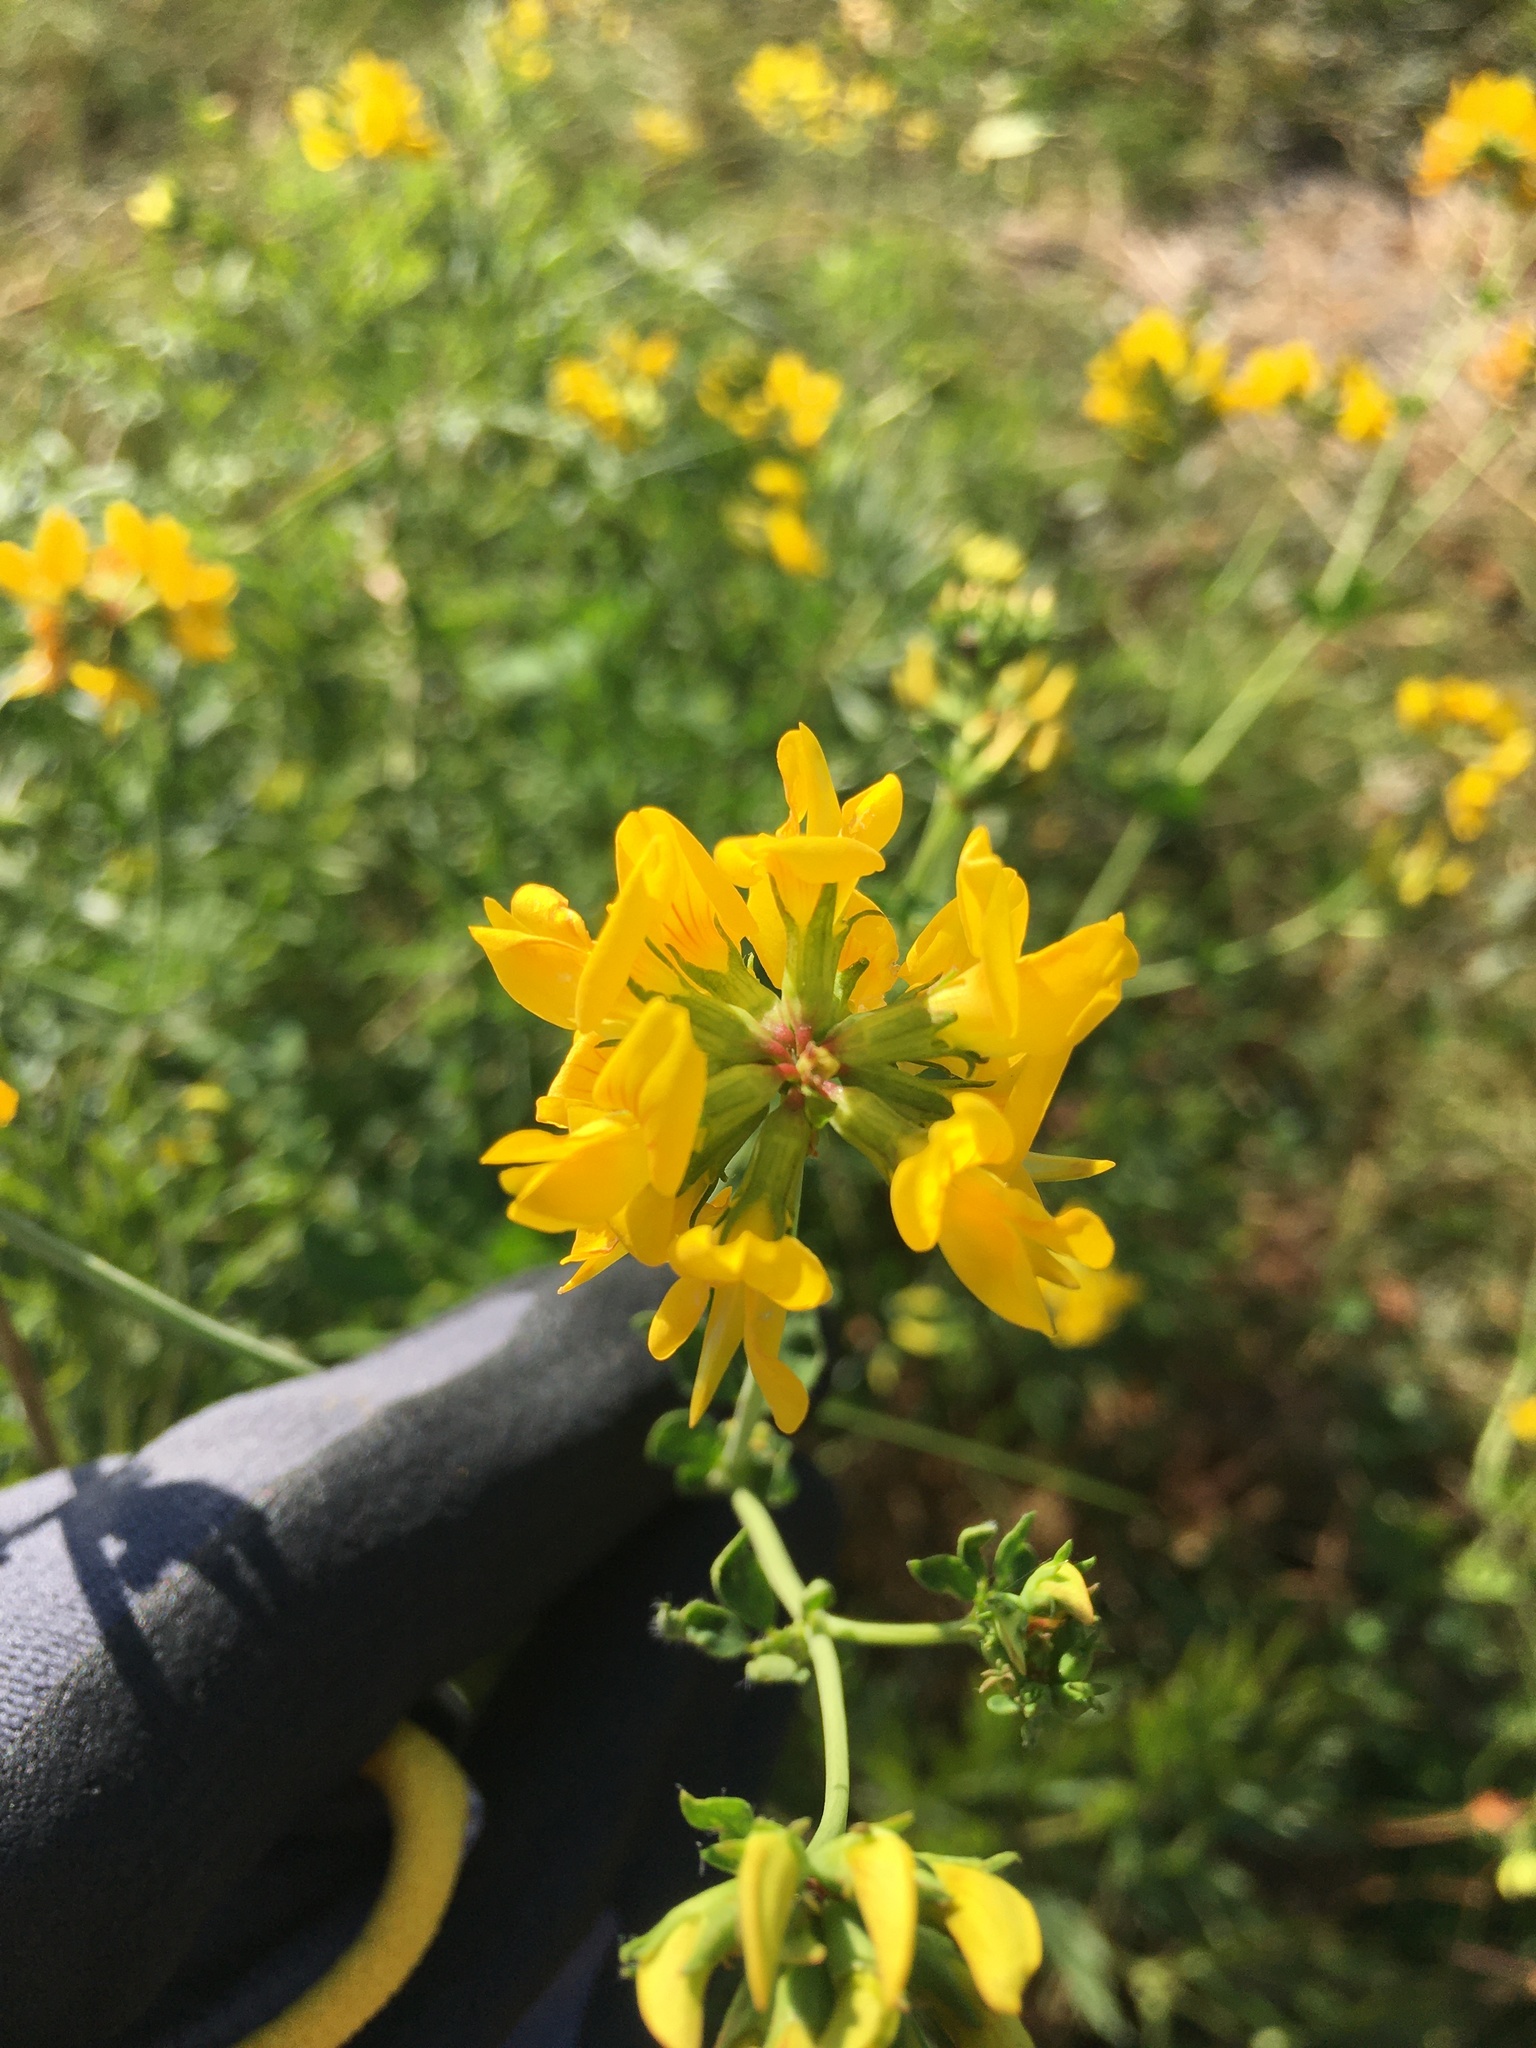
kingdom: Plantae
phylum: Tracheophyta
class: Magnoliopsida
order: Fabales
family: Fabaceae
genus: Lotus
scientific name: Lotus corniculatus
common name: Common bird's-foot-trefoil
